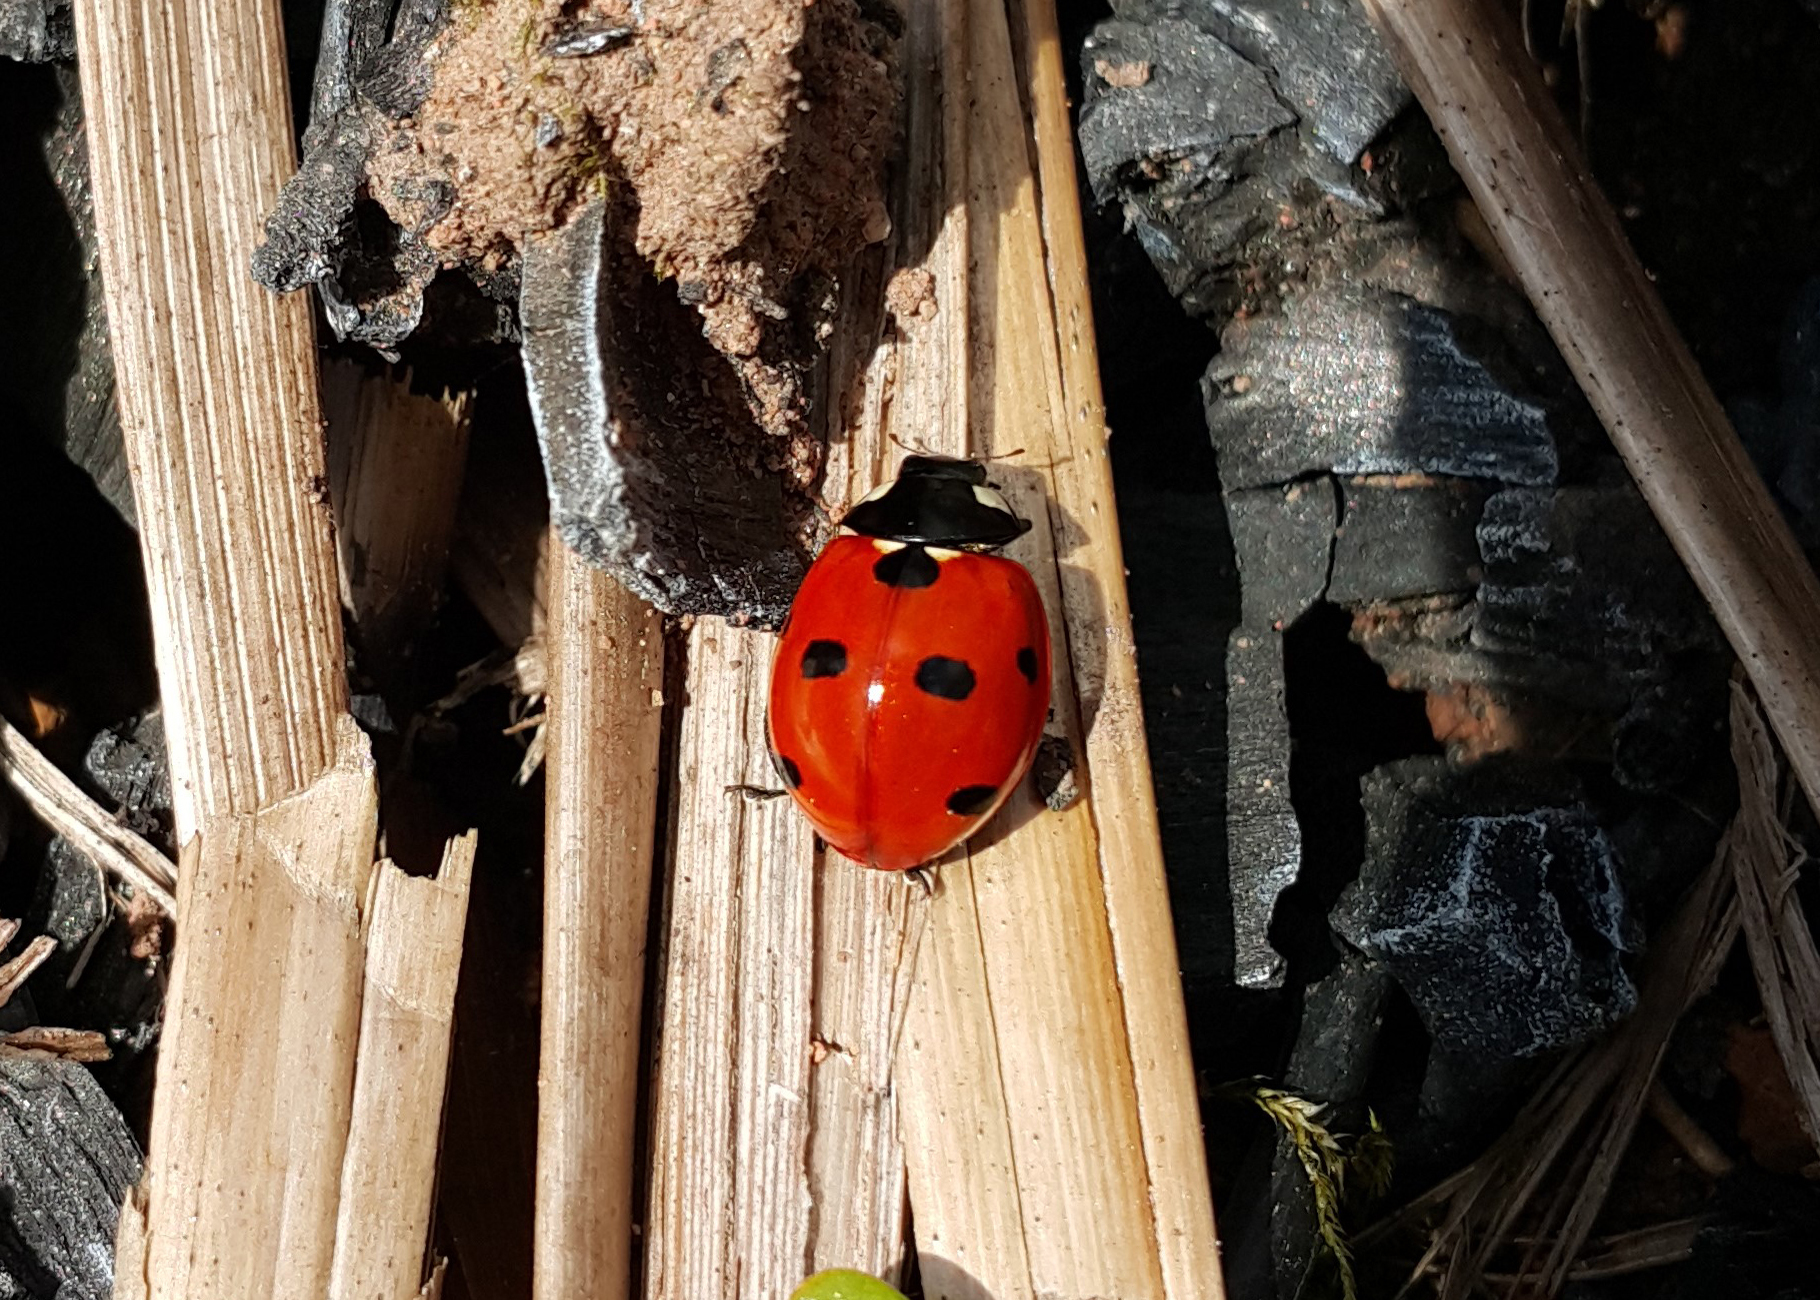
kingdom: Animalia
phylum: Arthropoda
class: Insecta
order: Coleoptera
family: Coccinellidae
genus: Coccinella
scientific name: Coccinella septempunctata
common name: Sevenspotted lady beetle
